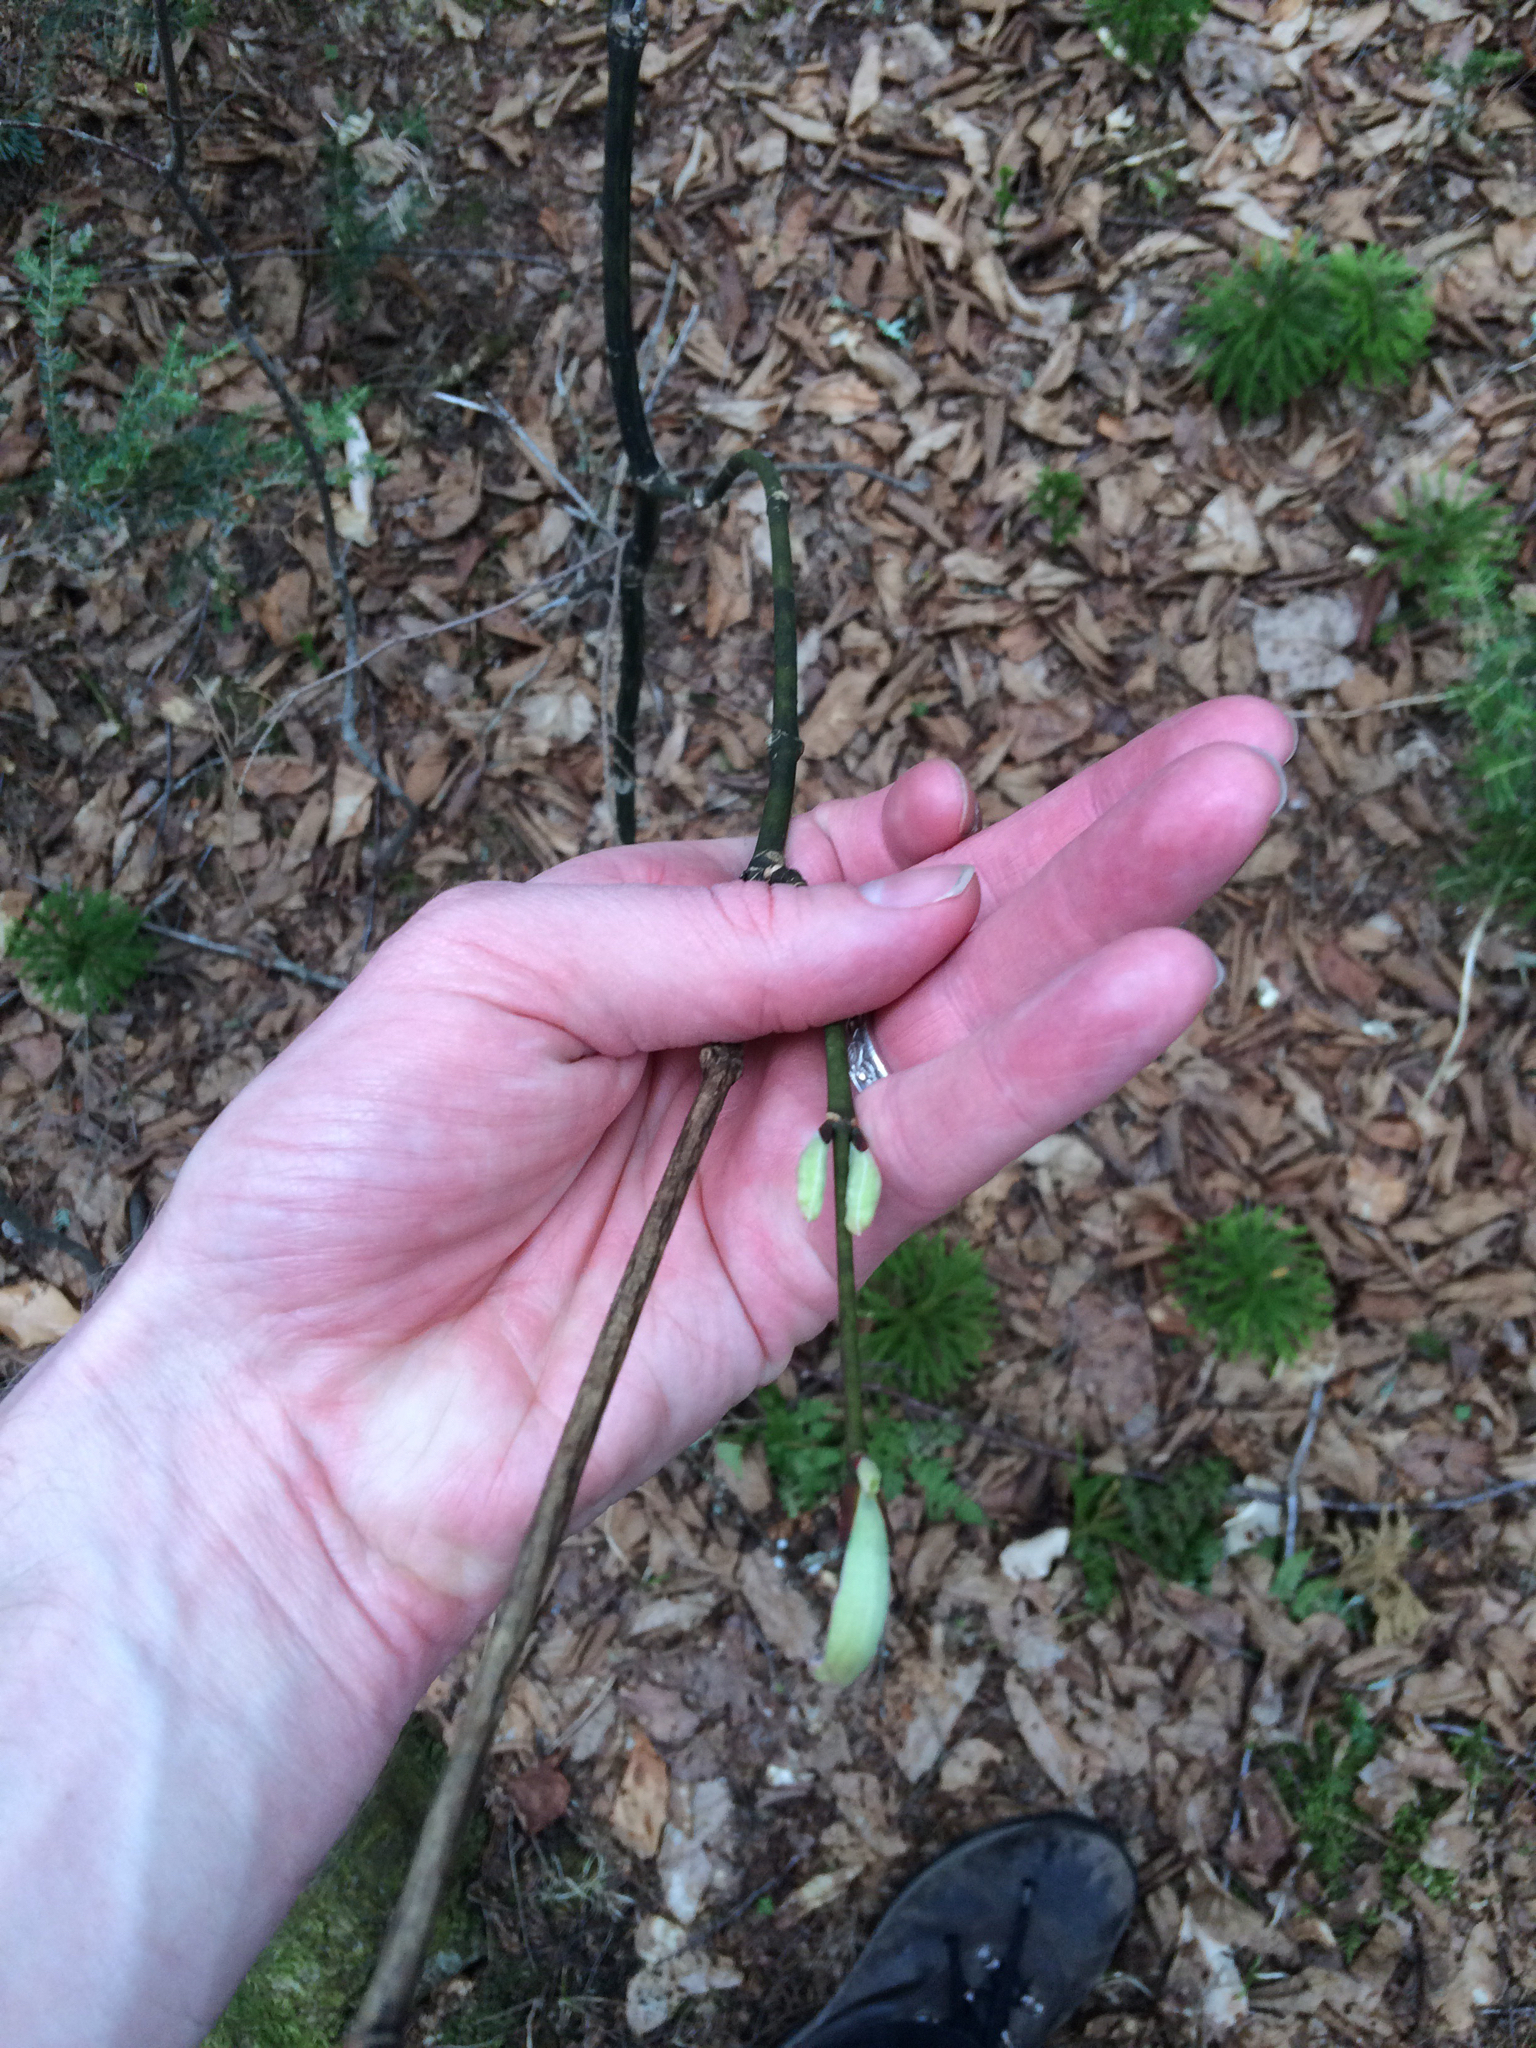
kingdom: Plantae
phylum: Tracheophyta
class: Magnoliopsida
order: Sapindales
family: Sapindaceae
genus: Acer
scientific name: Acer pensylvanicum
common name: Moosewood
